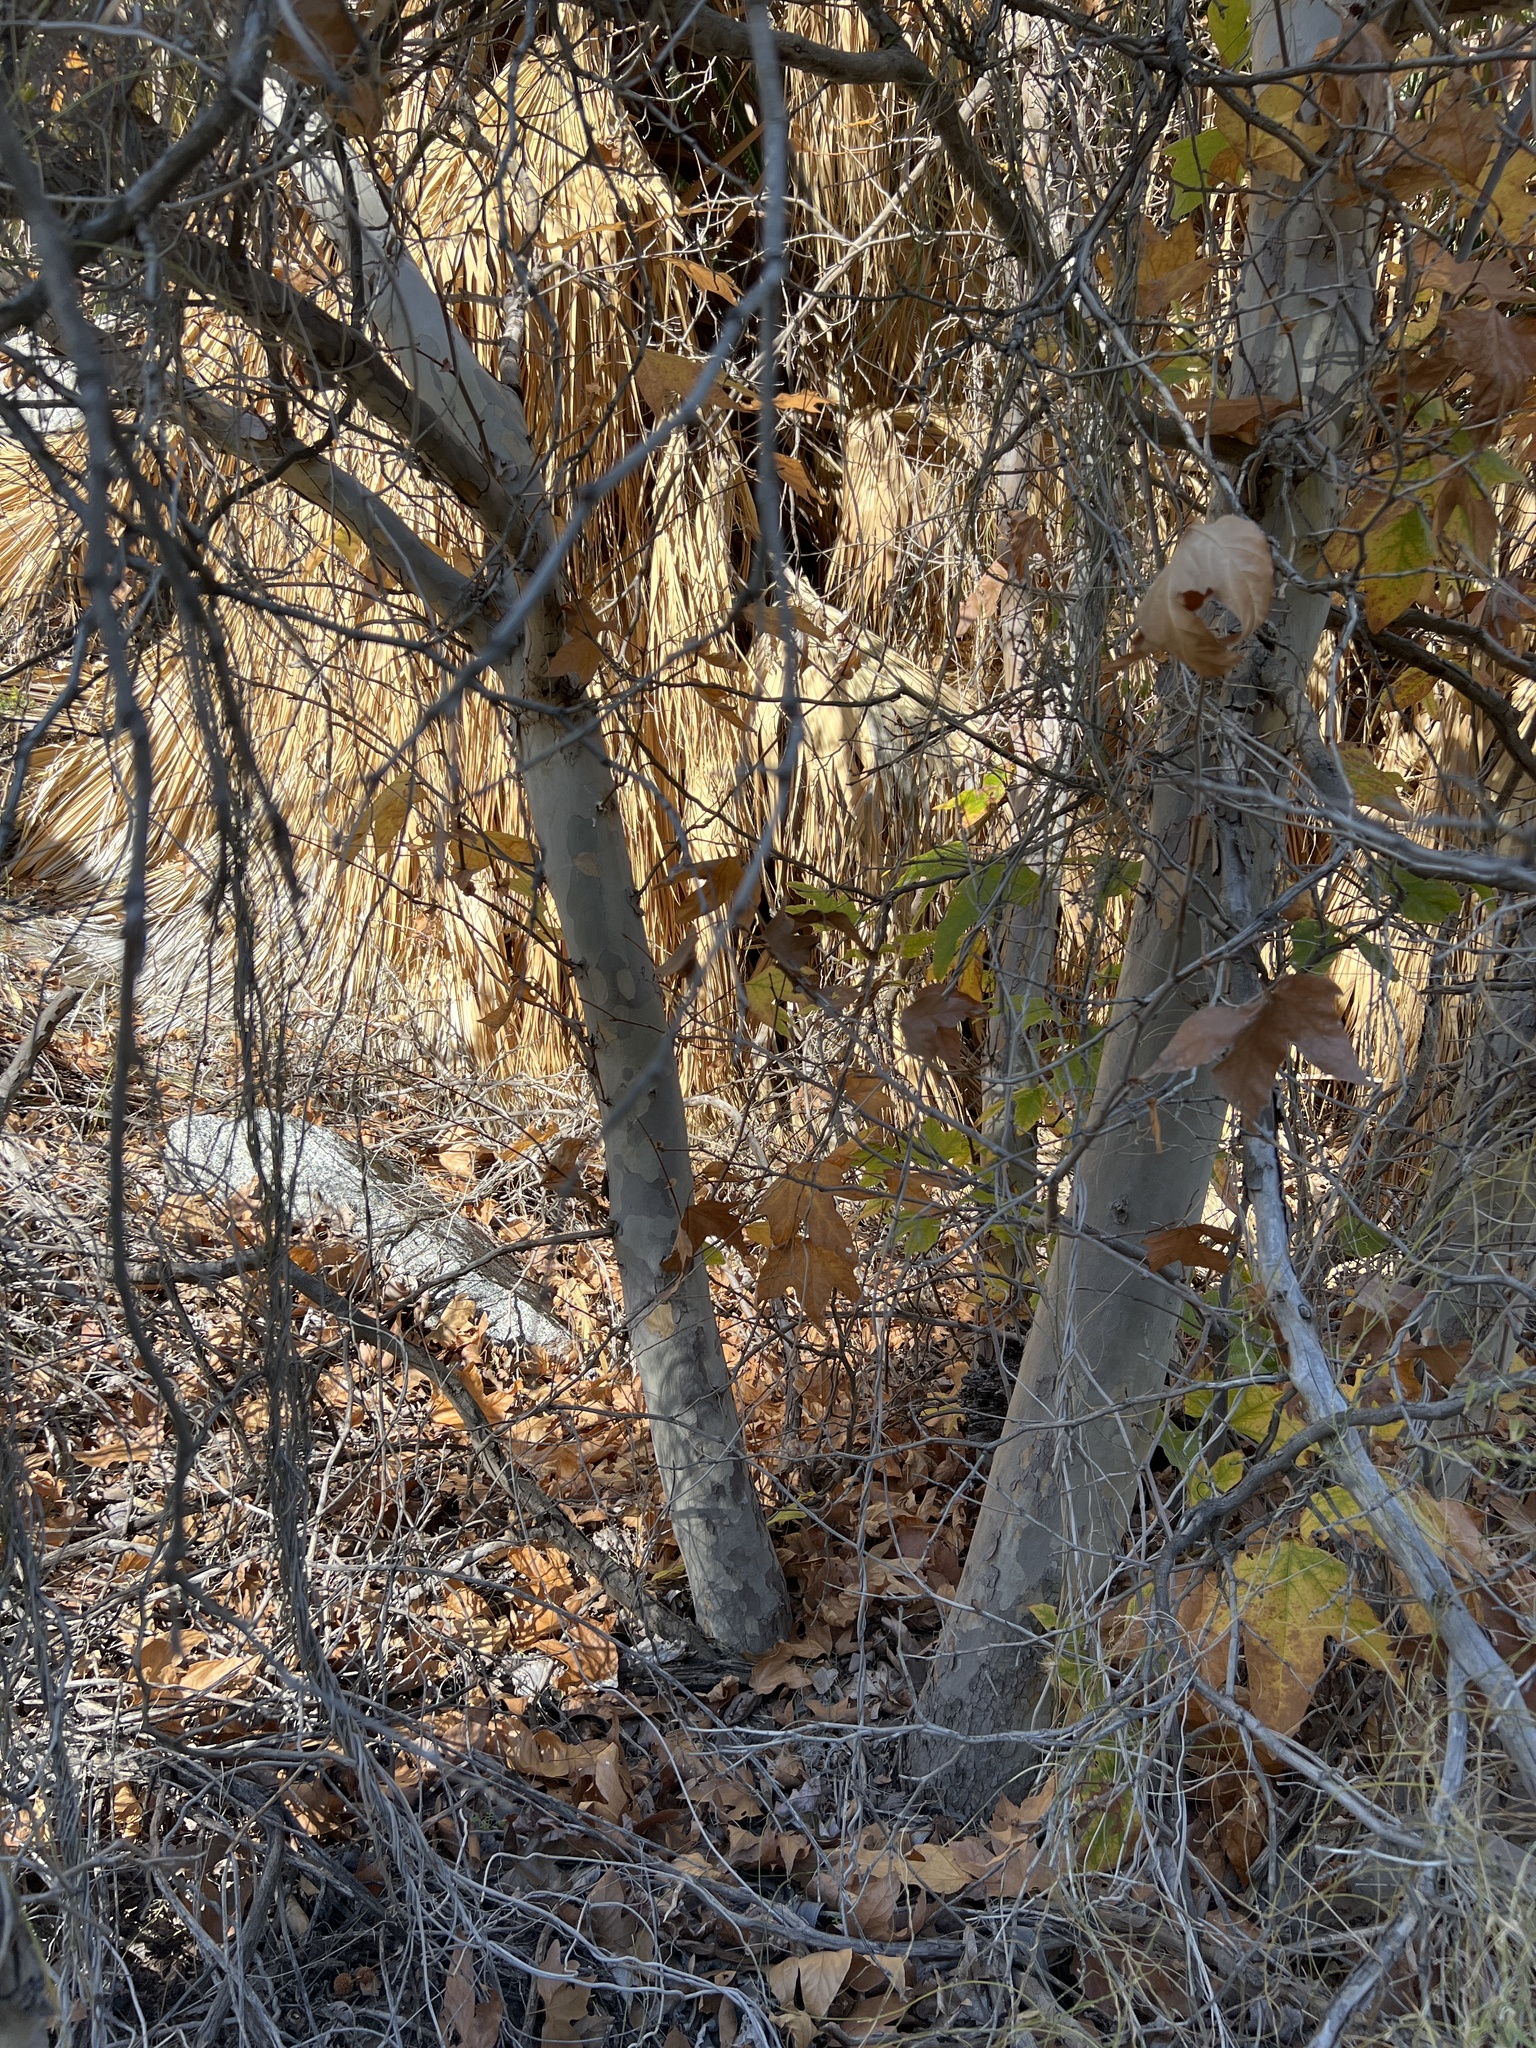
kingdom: Plantae
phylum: Tracheophyta
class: Magnoliopsida
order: Proteales
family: Platanaceae
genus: Platanus
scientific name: Platanus racemosa
